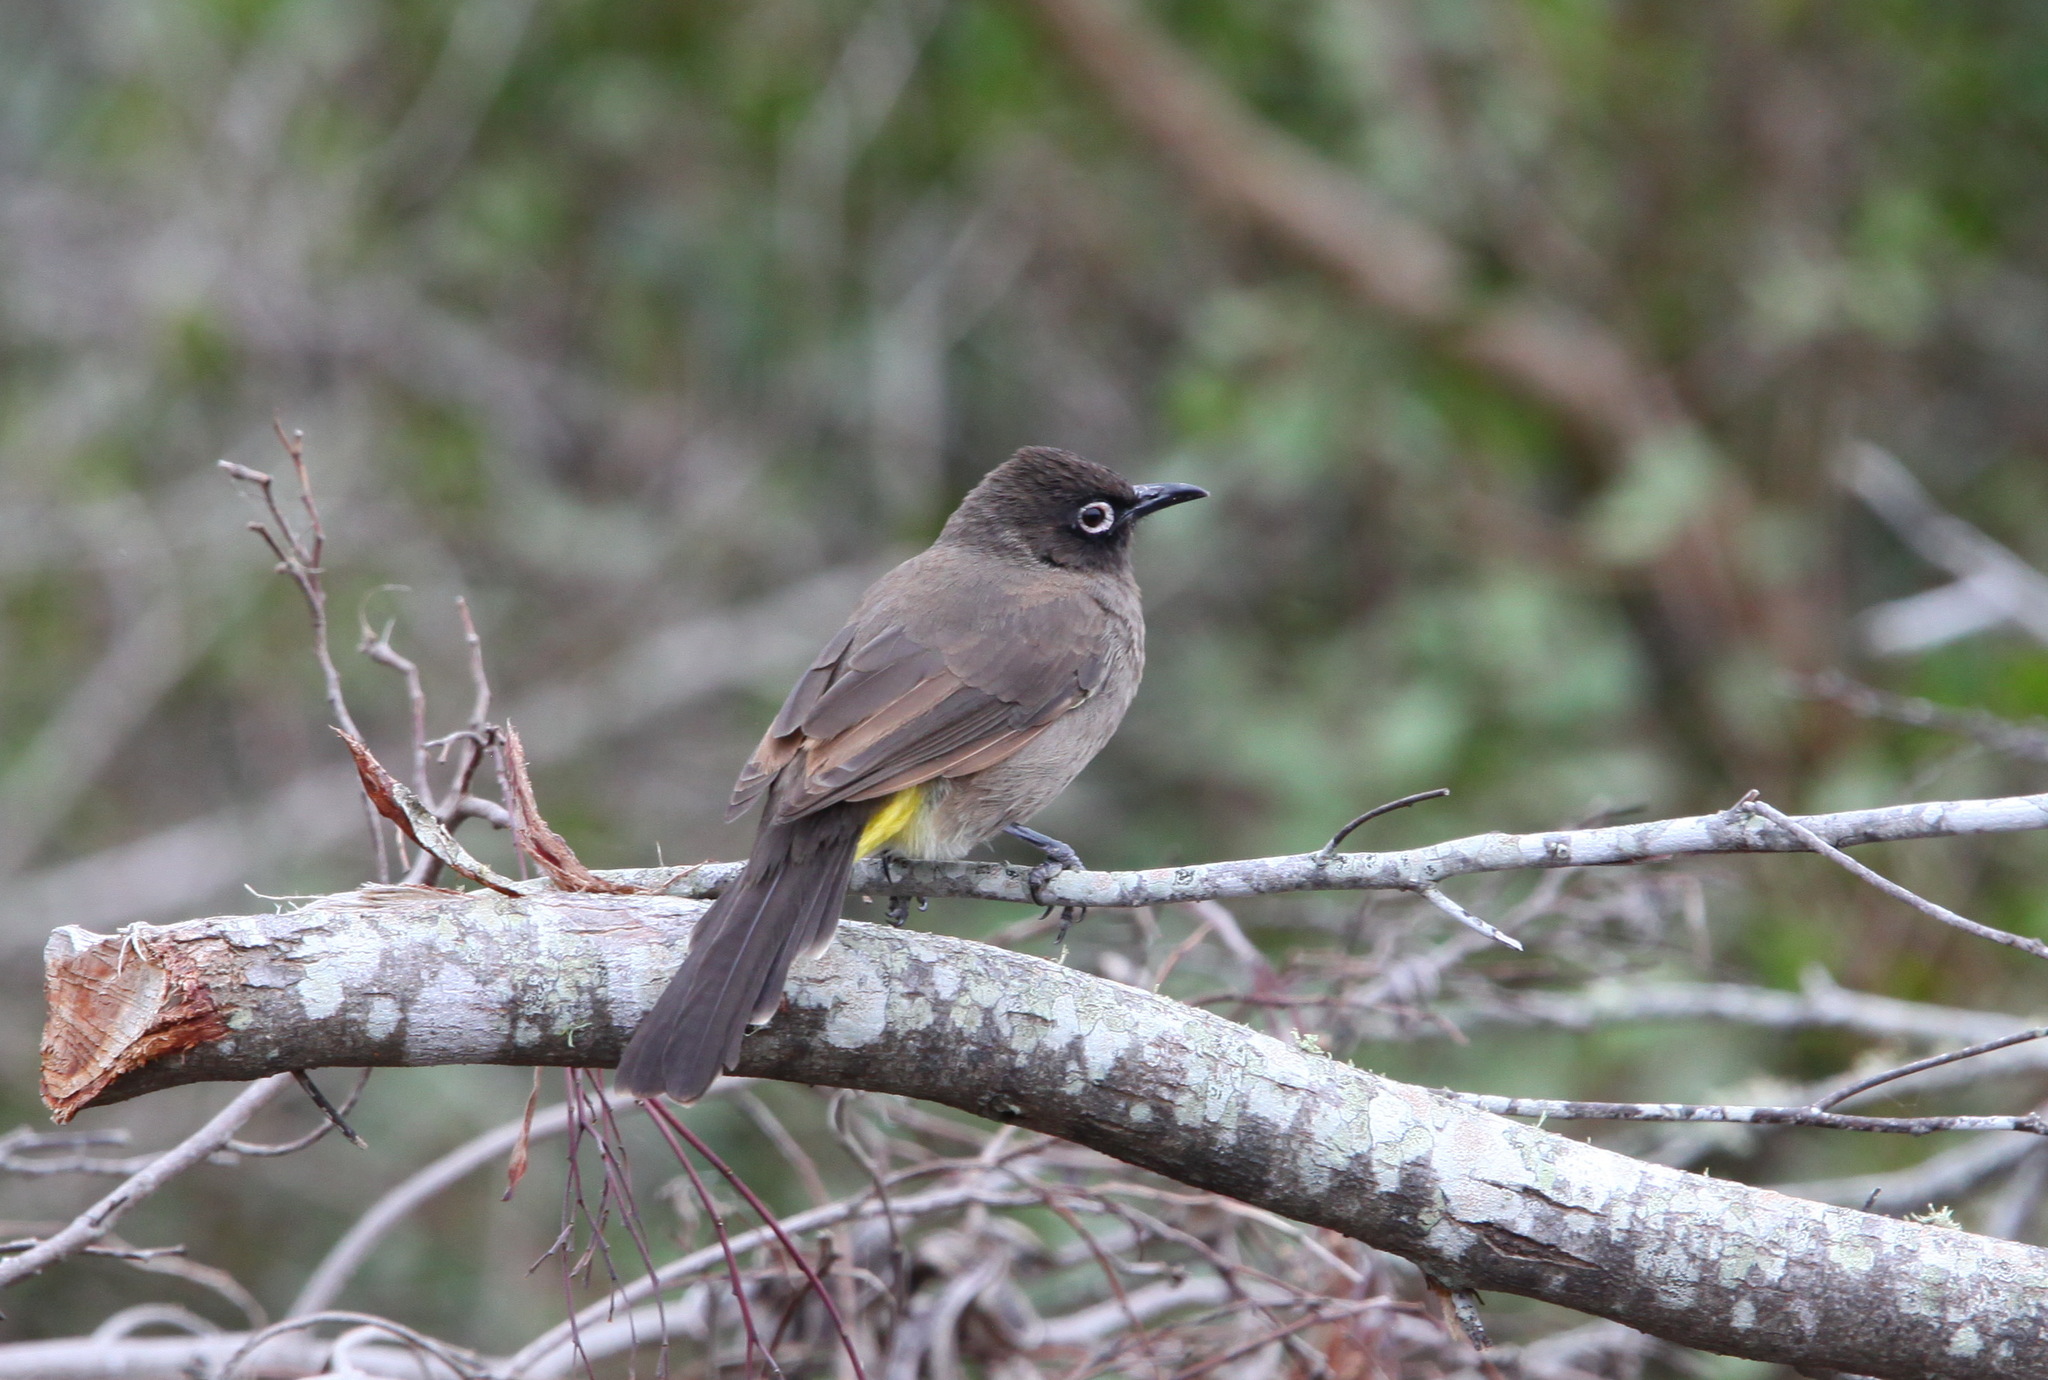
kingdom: Animalia
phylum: Chordata
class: Aves
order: Passeriformes
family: Pycnonotidae
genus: Pycnonotus
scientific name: Pycnonotus capensis
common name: Cape bulbul
